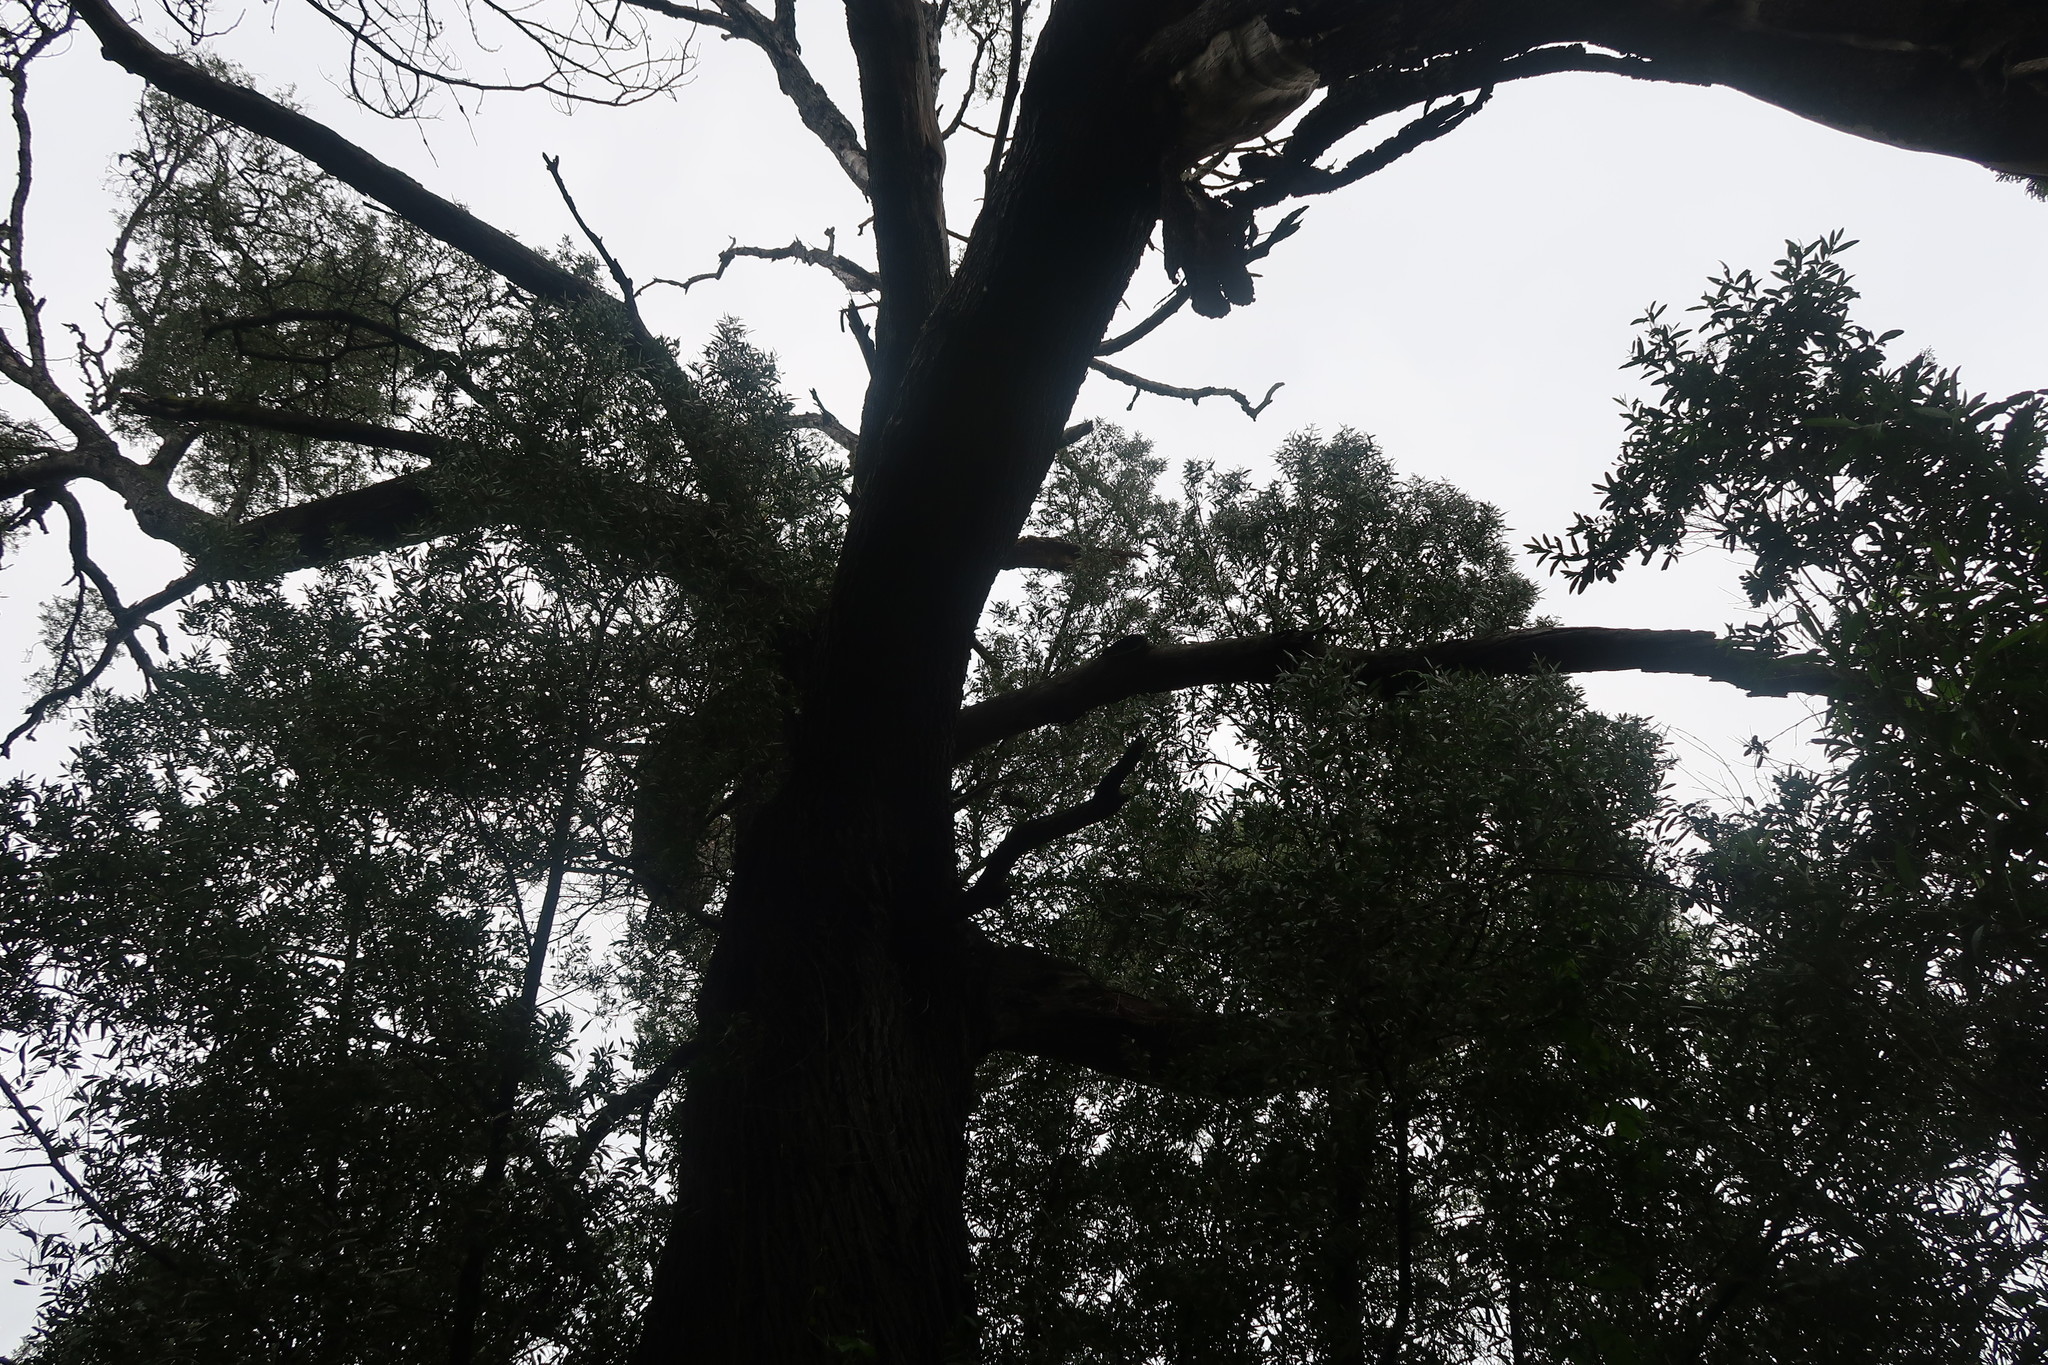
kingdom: Plantae
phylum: Tracheophyta
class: Magnoliopsida
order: Fabales
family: Fabaceae
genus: Acacia
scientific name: Acacia mearnsii
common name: Black wattle
